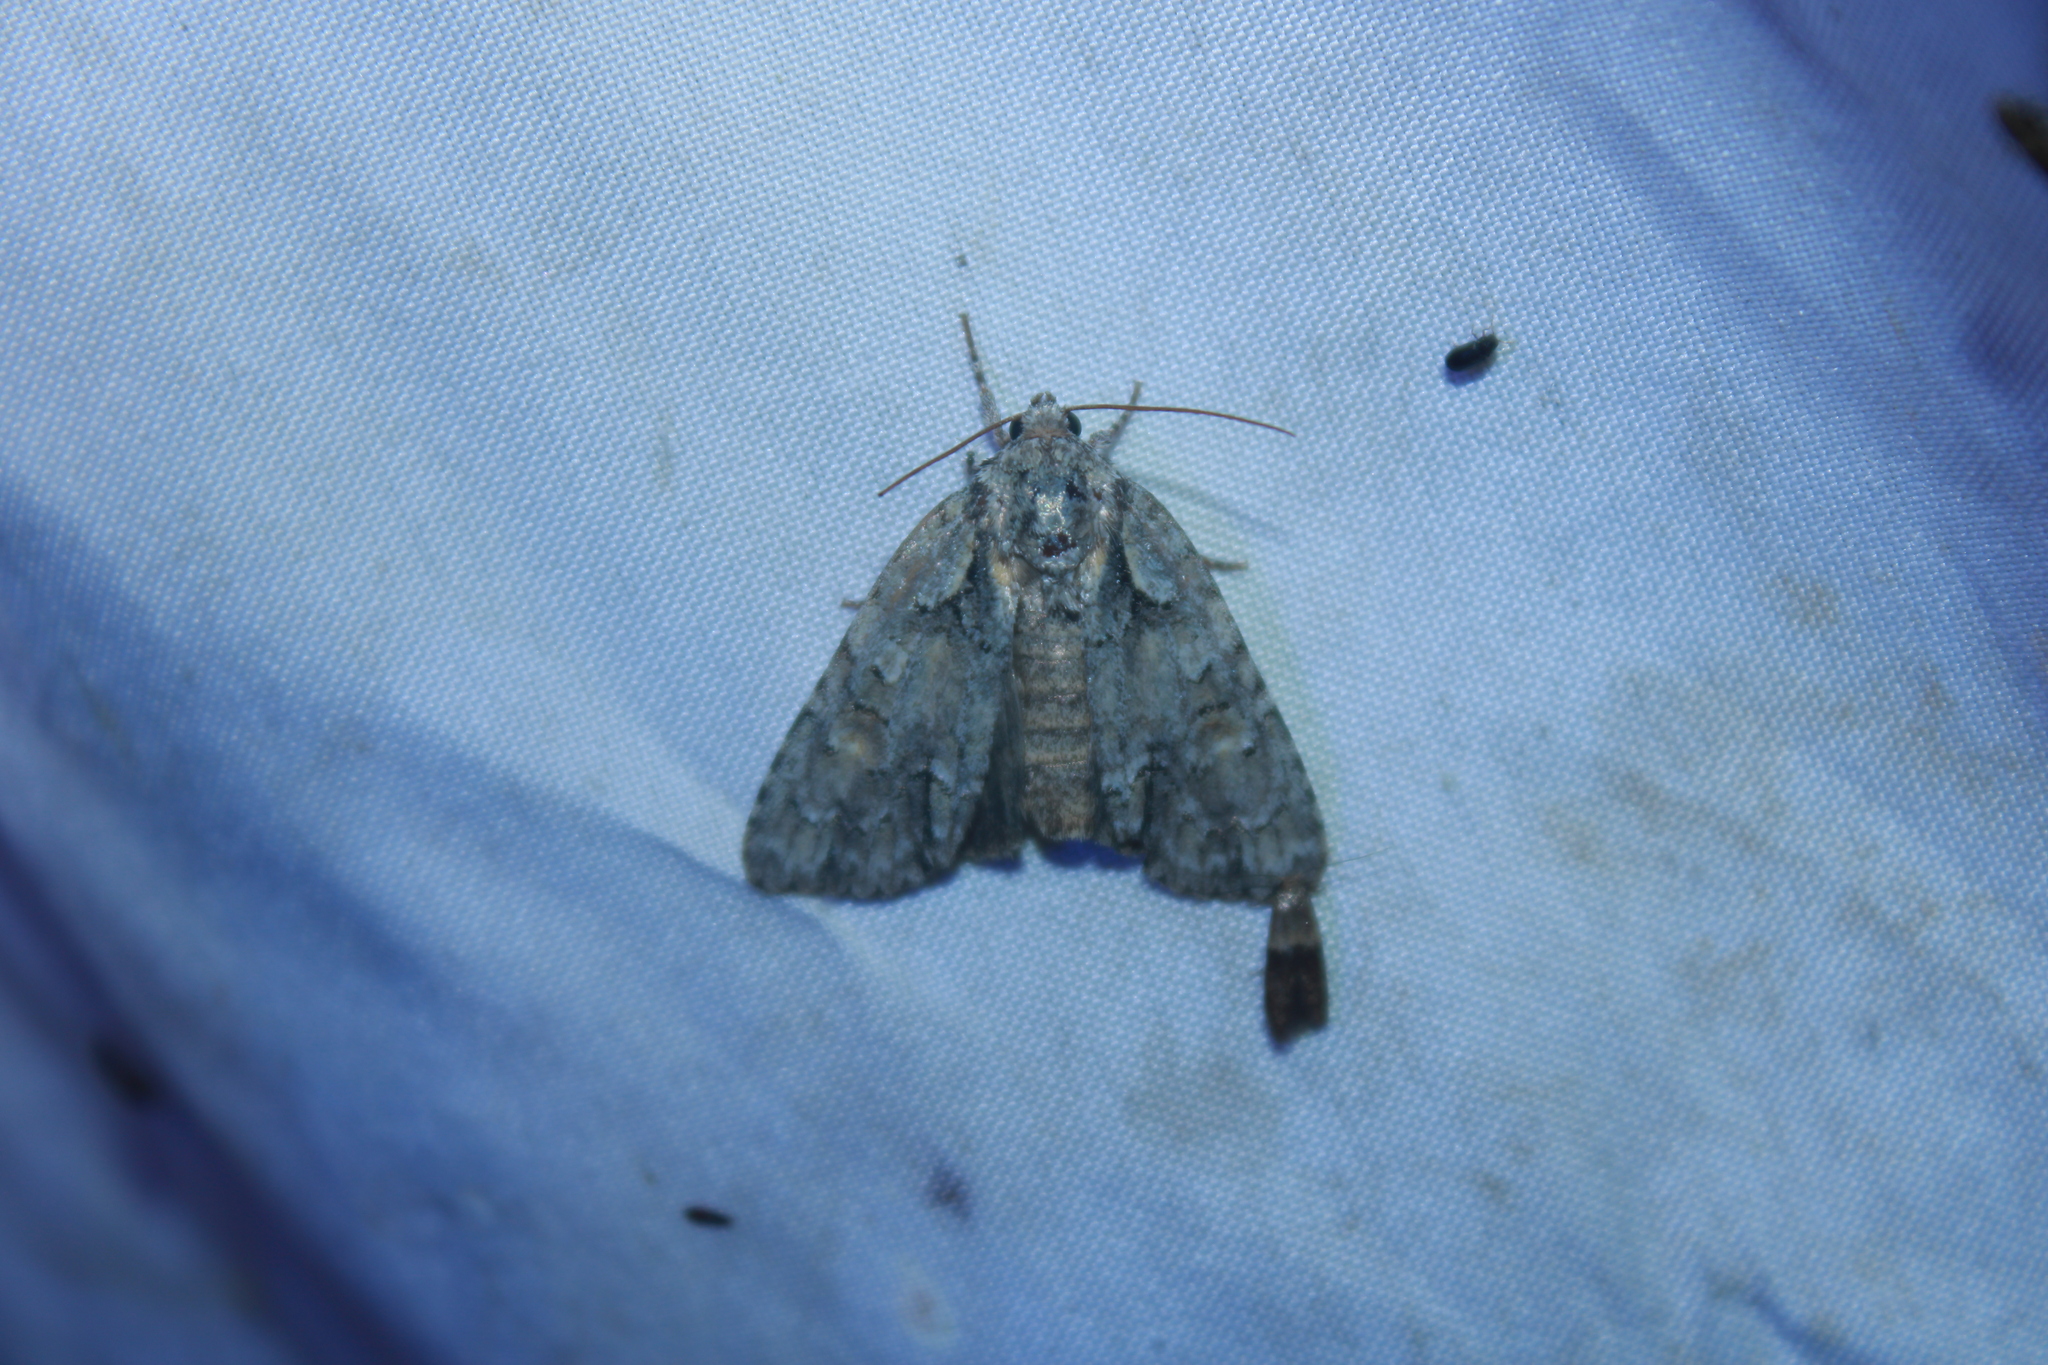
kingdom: Animalia
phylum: Arthropoda
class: Insecta
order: Lepidoptera
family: Noctuidae
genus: Acronicta
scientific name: Acronicta ovata
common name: Epauleted oak dagger
